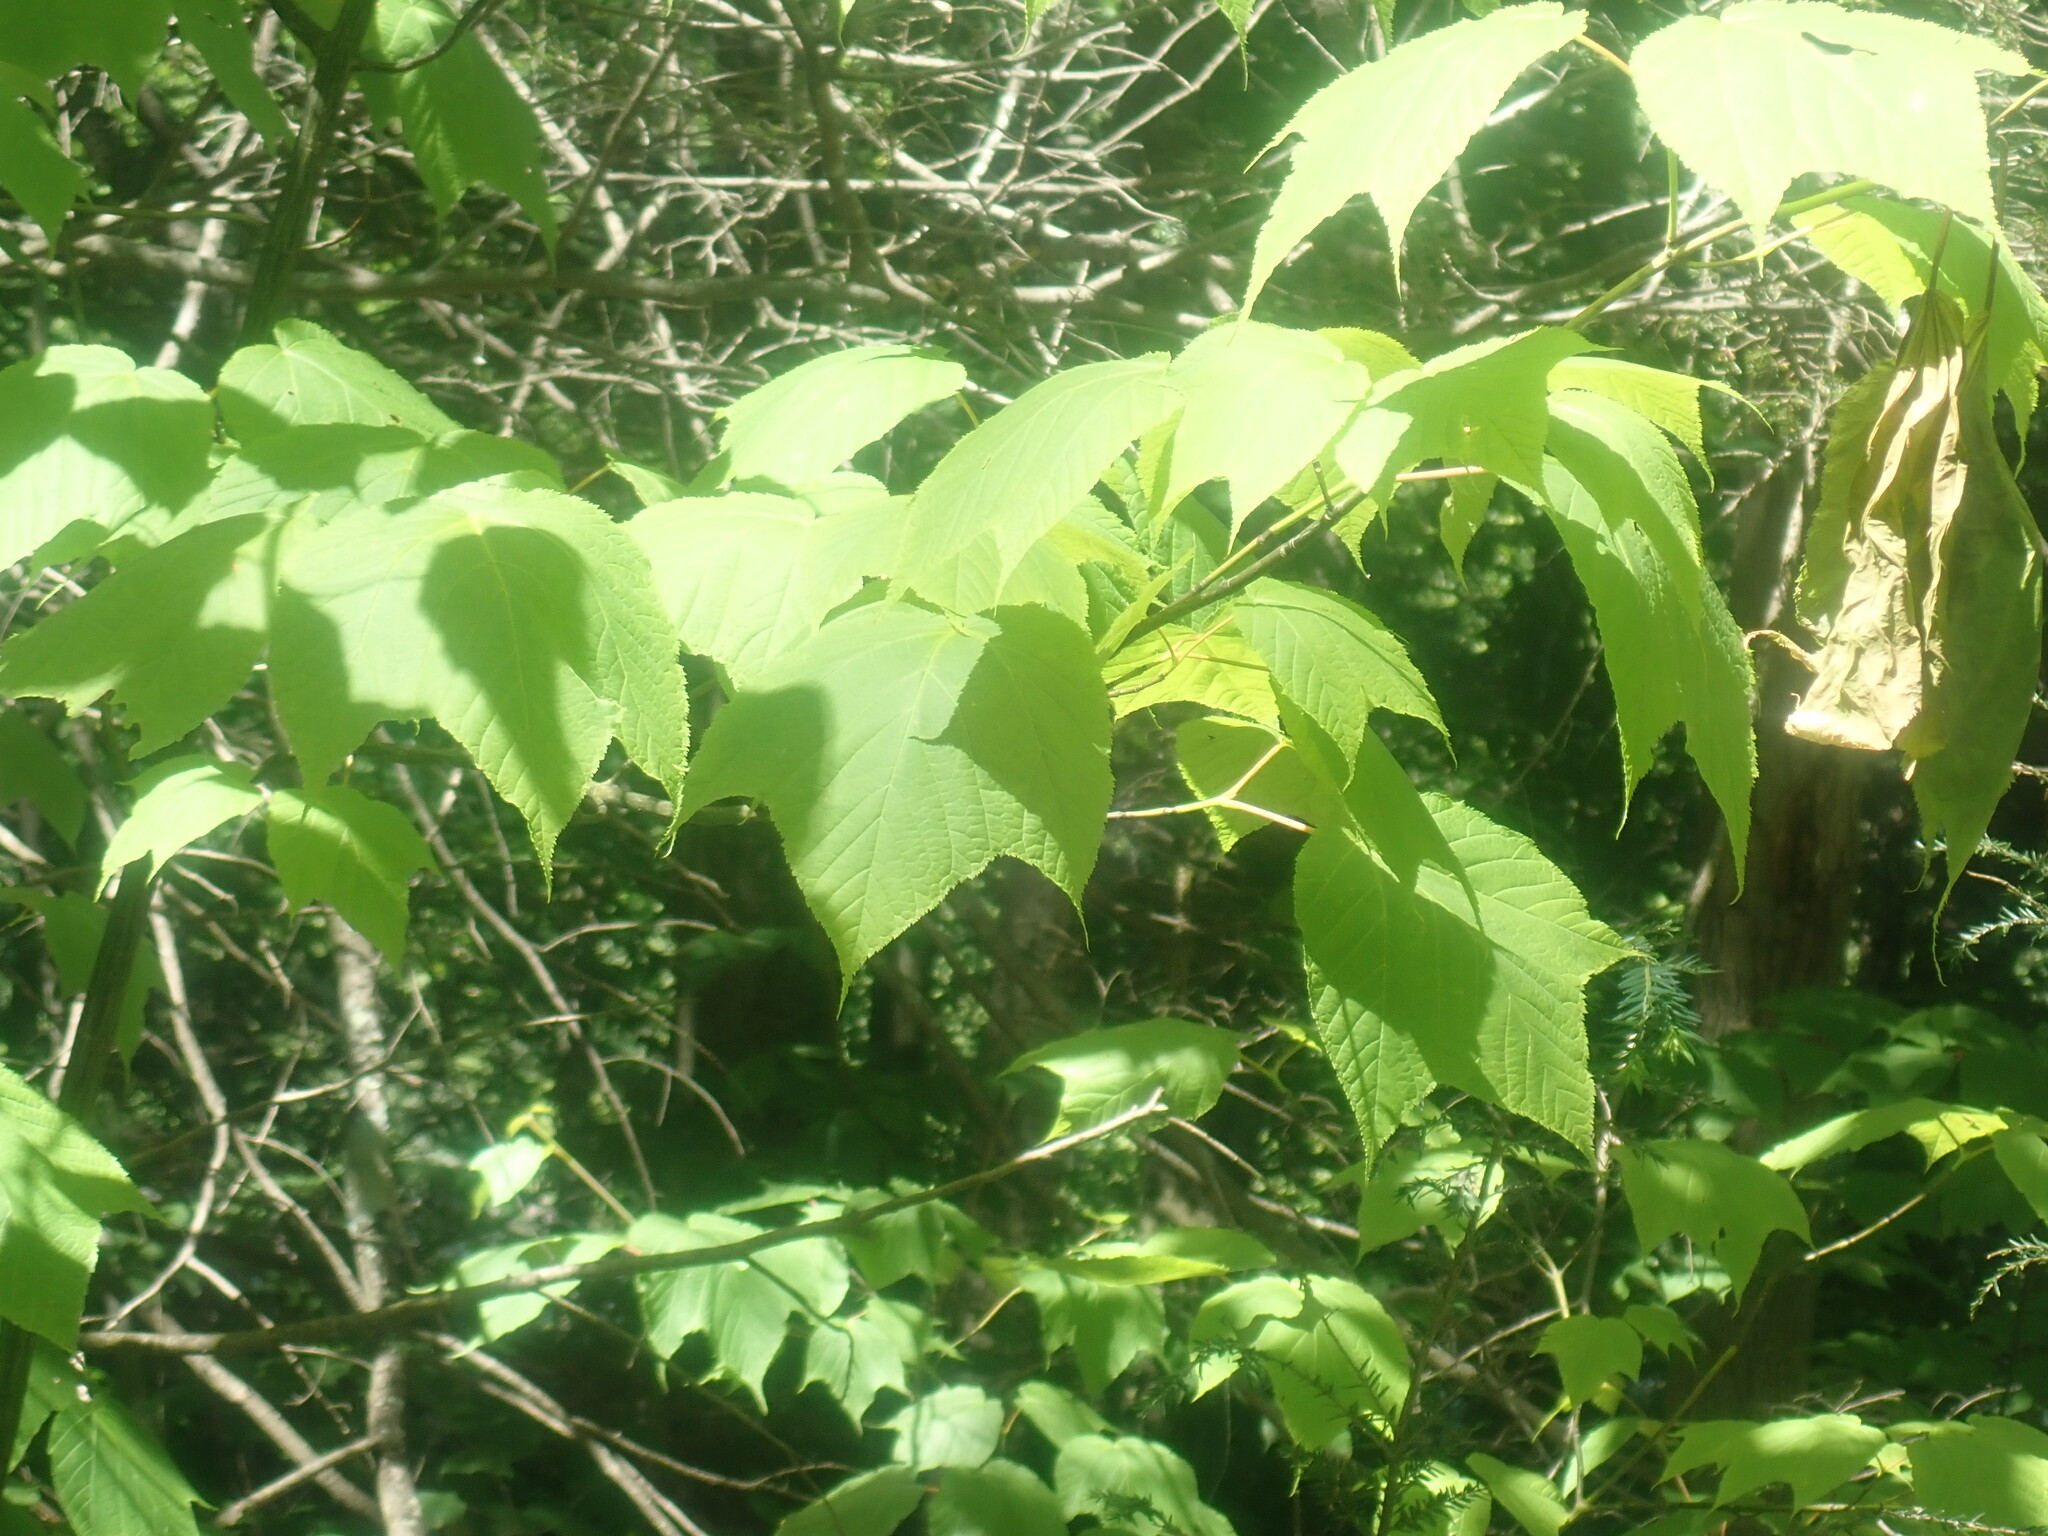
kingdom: Plantae
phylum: Tracheophyta
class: Magnoliopsida
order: Sapindales
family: Sapindaceae
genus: Acer
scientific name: Acer pensylvanicum
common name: Moosewood
